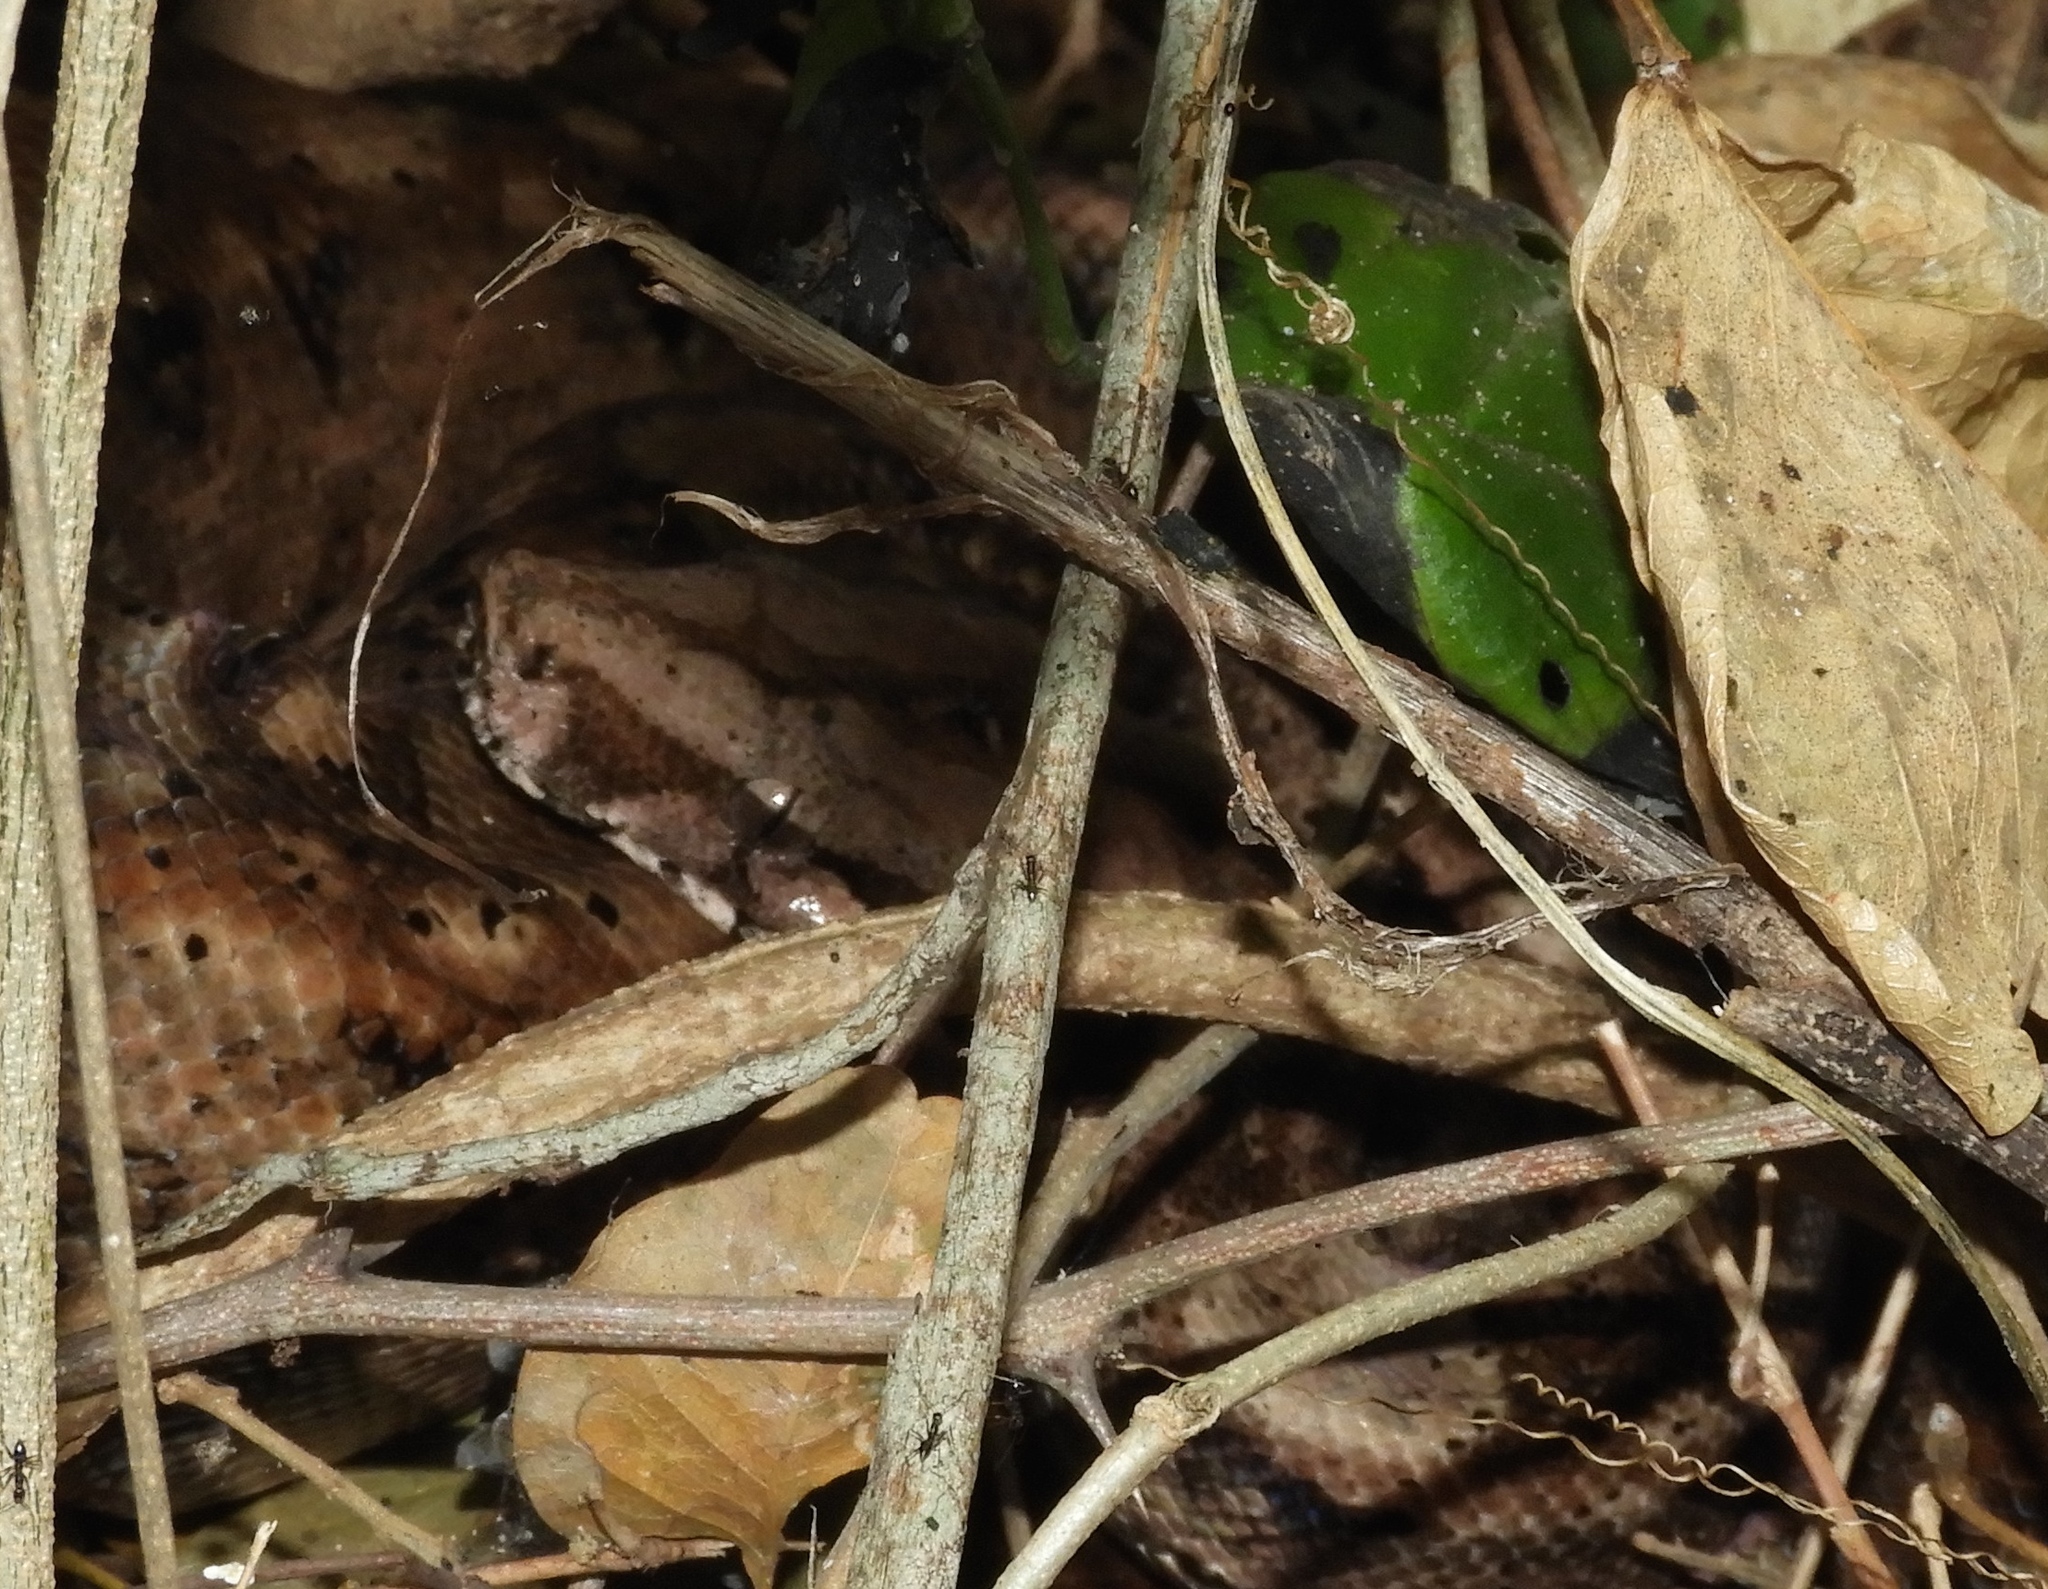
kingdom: Animalia
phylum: Chordata
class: Squamata
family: Boidae
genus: Boa
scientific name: Boa
